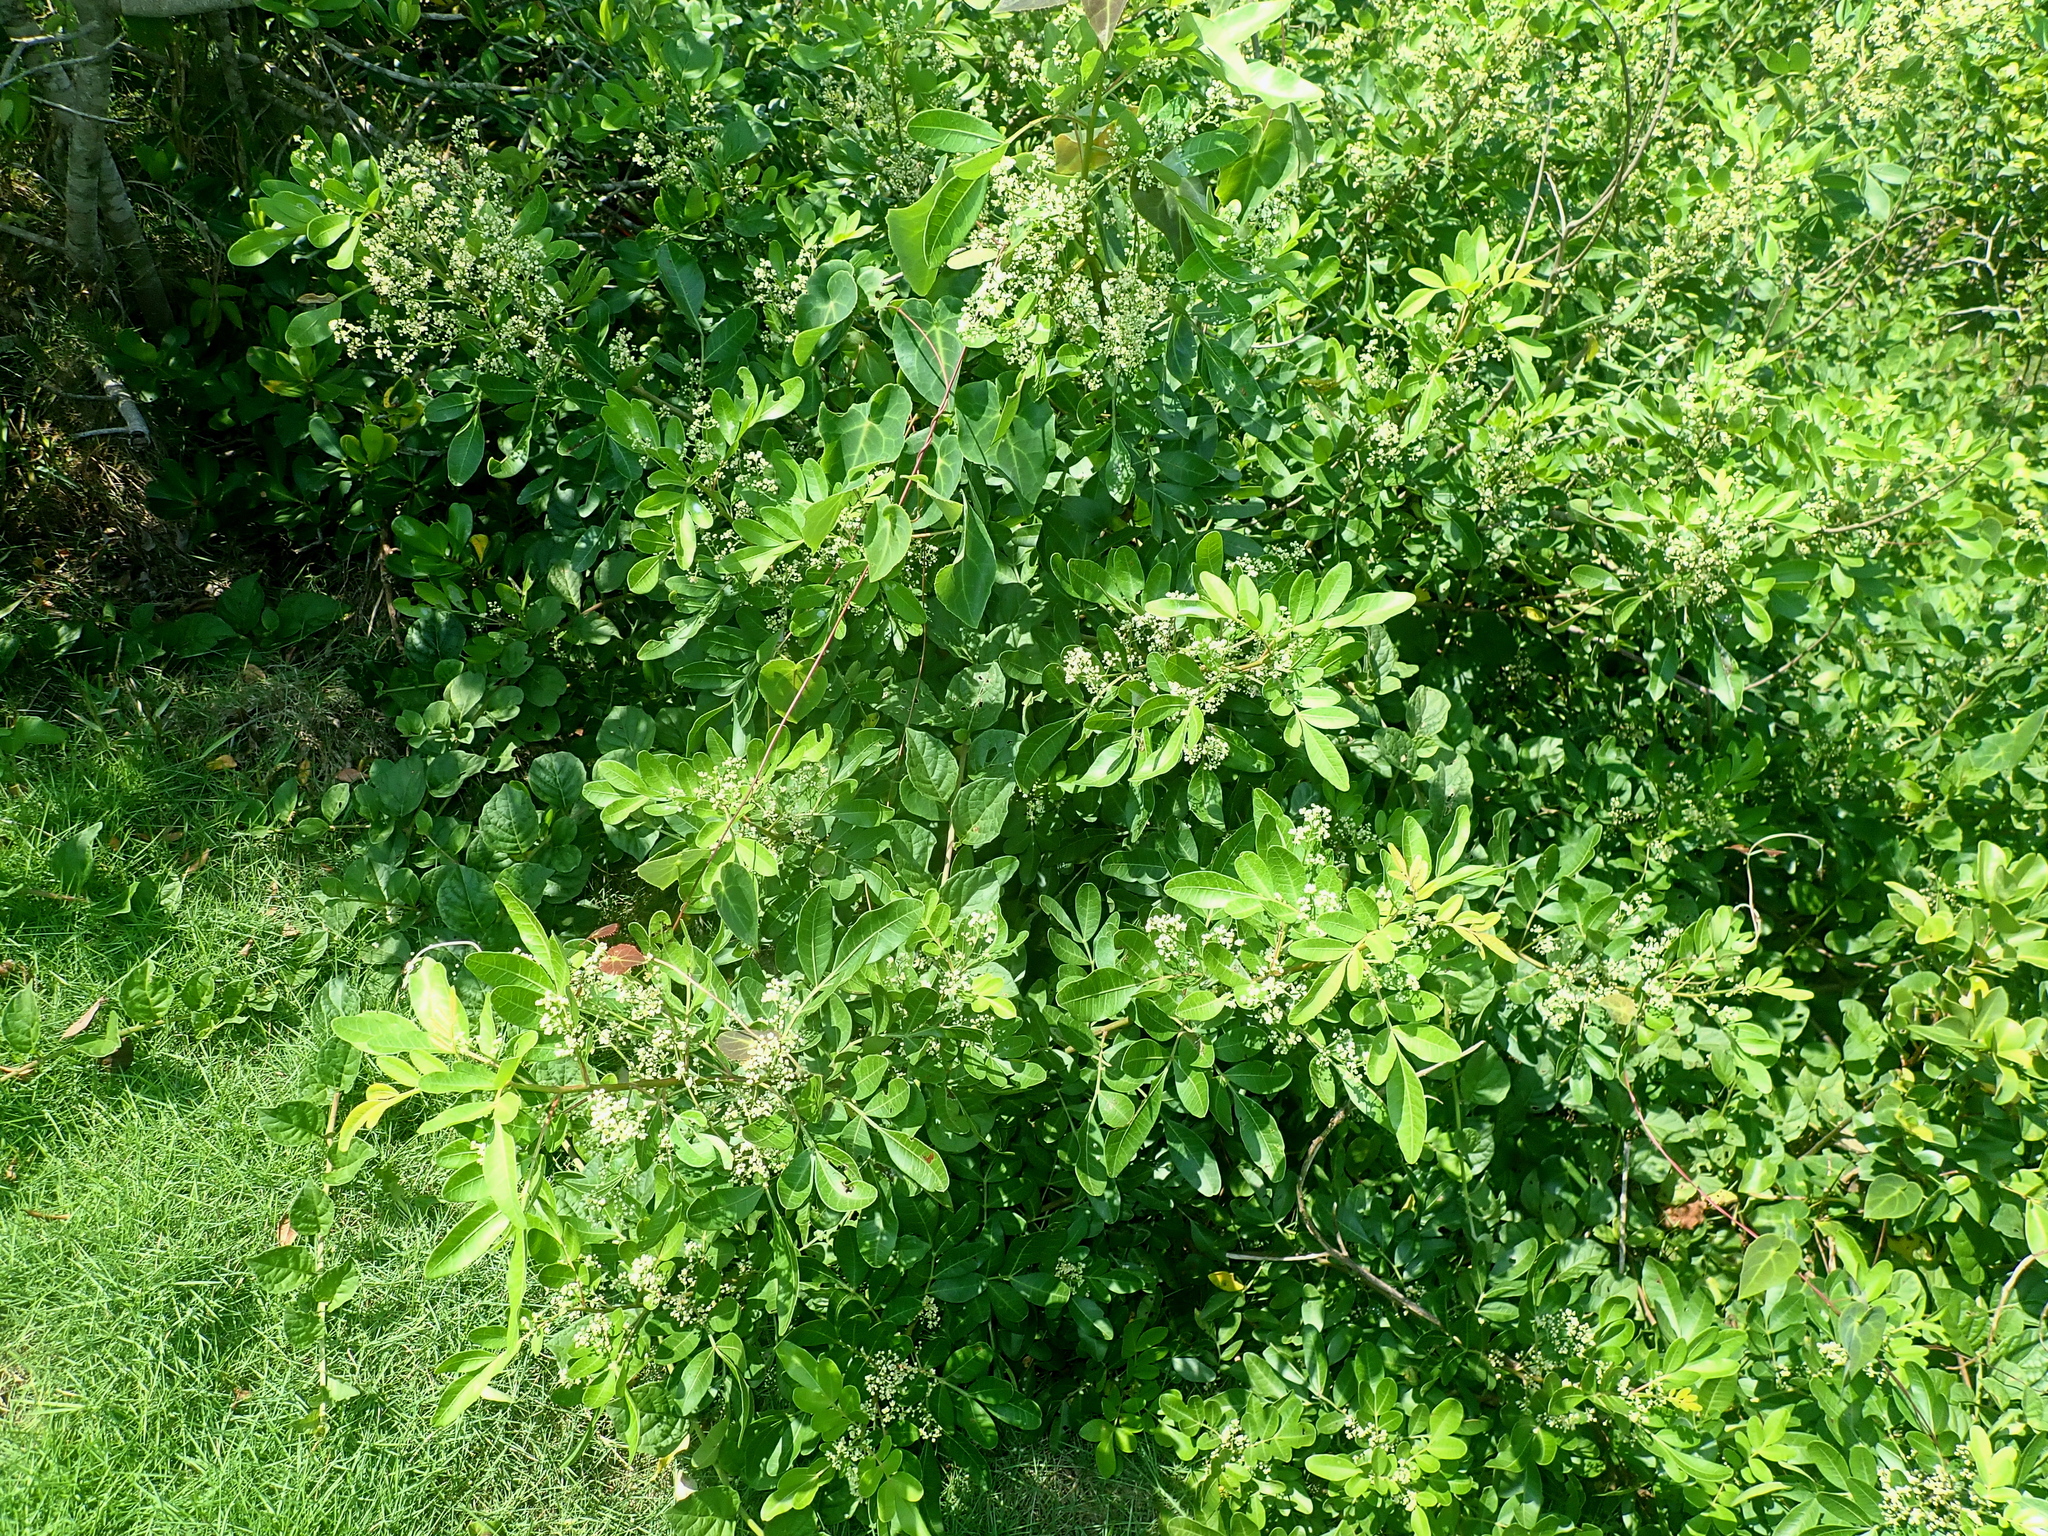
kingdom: Plantae
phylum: Tracheophyta
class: Magnoliopsida
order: Sapindales
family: Anacardiaceae
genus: Schinus
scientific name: Schinus terebinthifolia
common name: Brazilian peppertree
